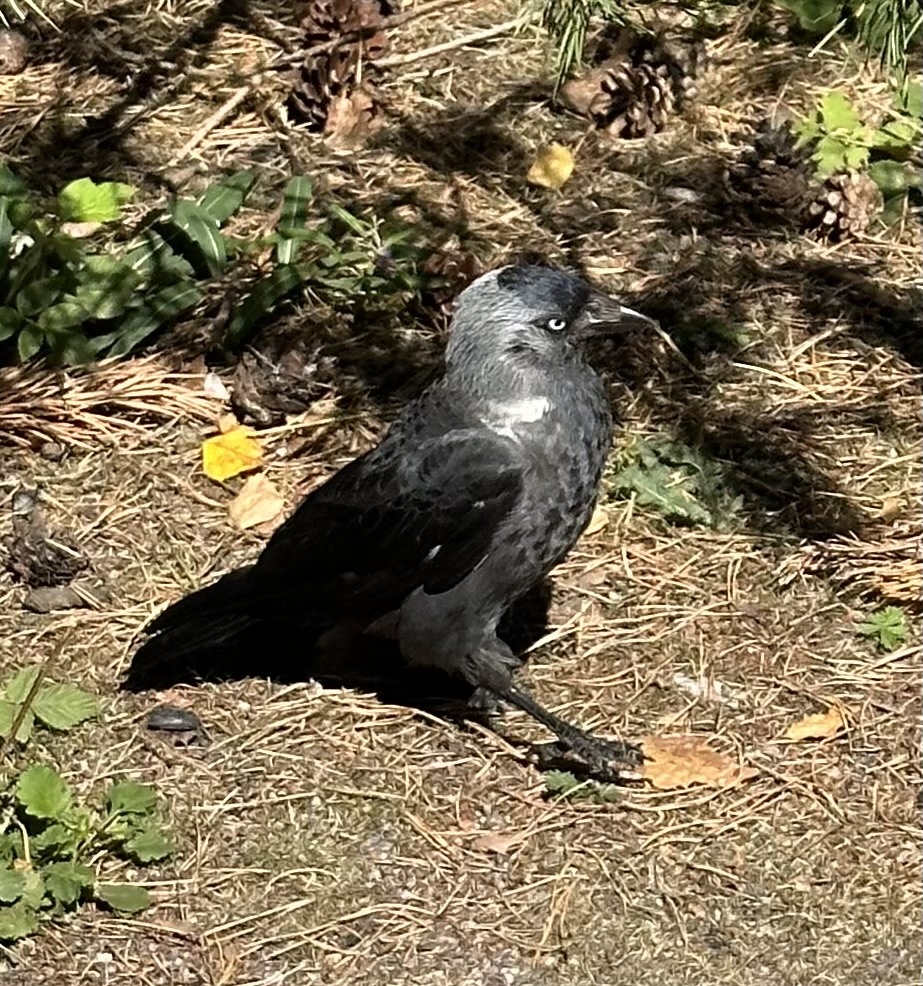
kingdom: Animalia
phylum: Chordata
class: Aves
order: Passeriformes
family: Corvidae
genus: Coloeus
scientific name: Coloeus monedula
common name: Western jackdaw
